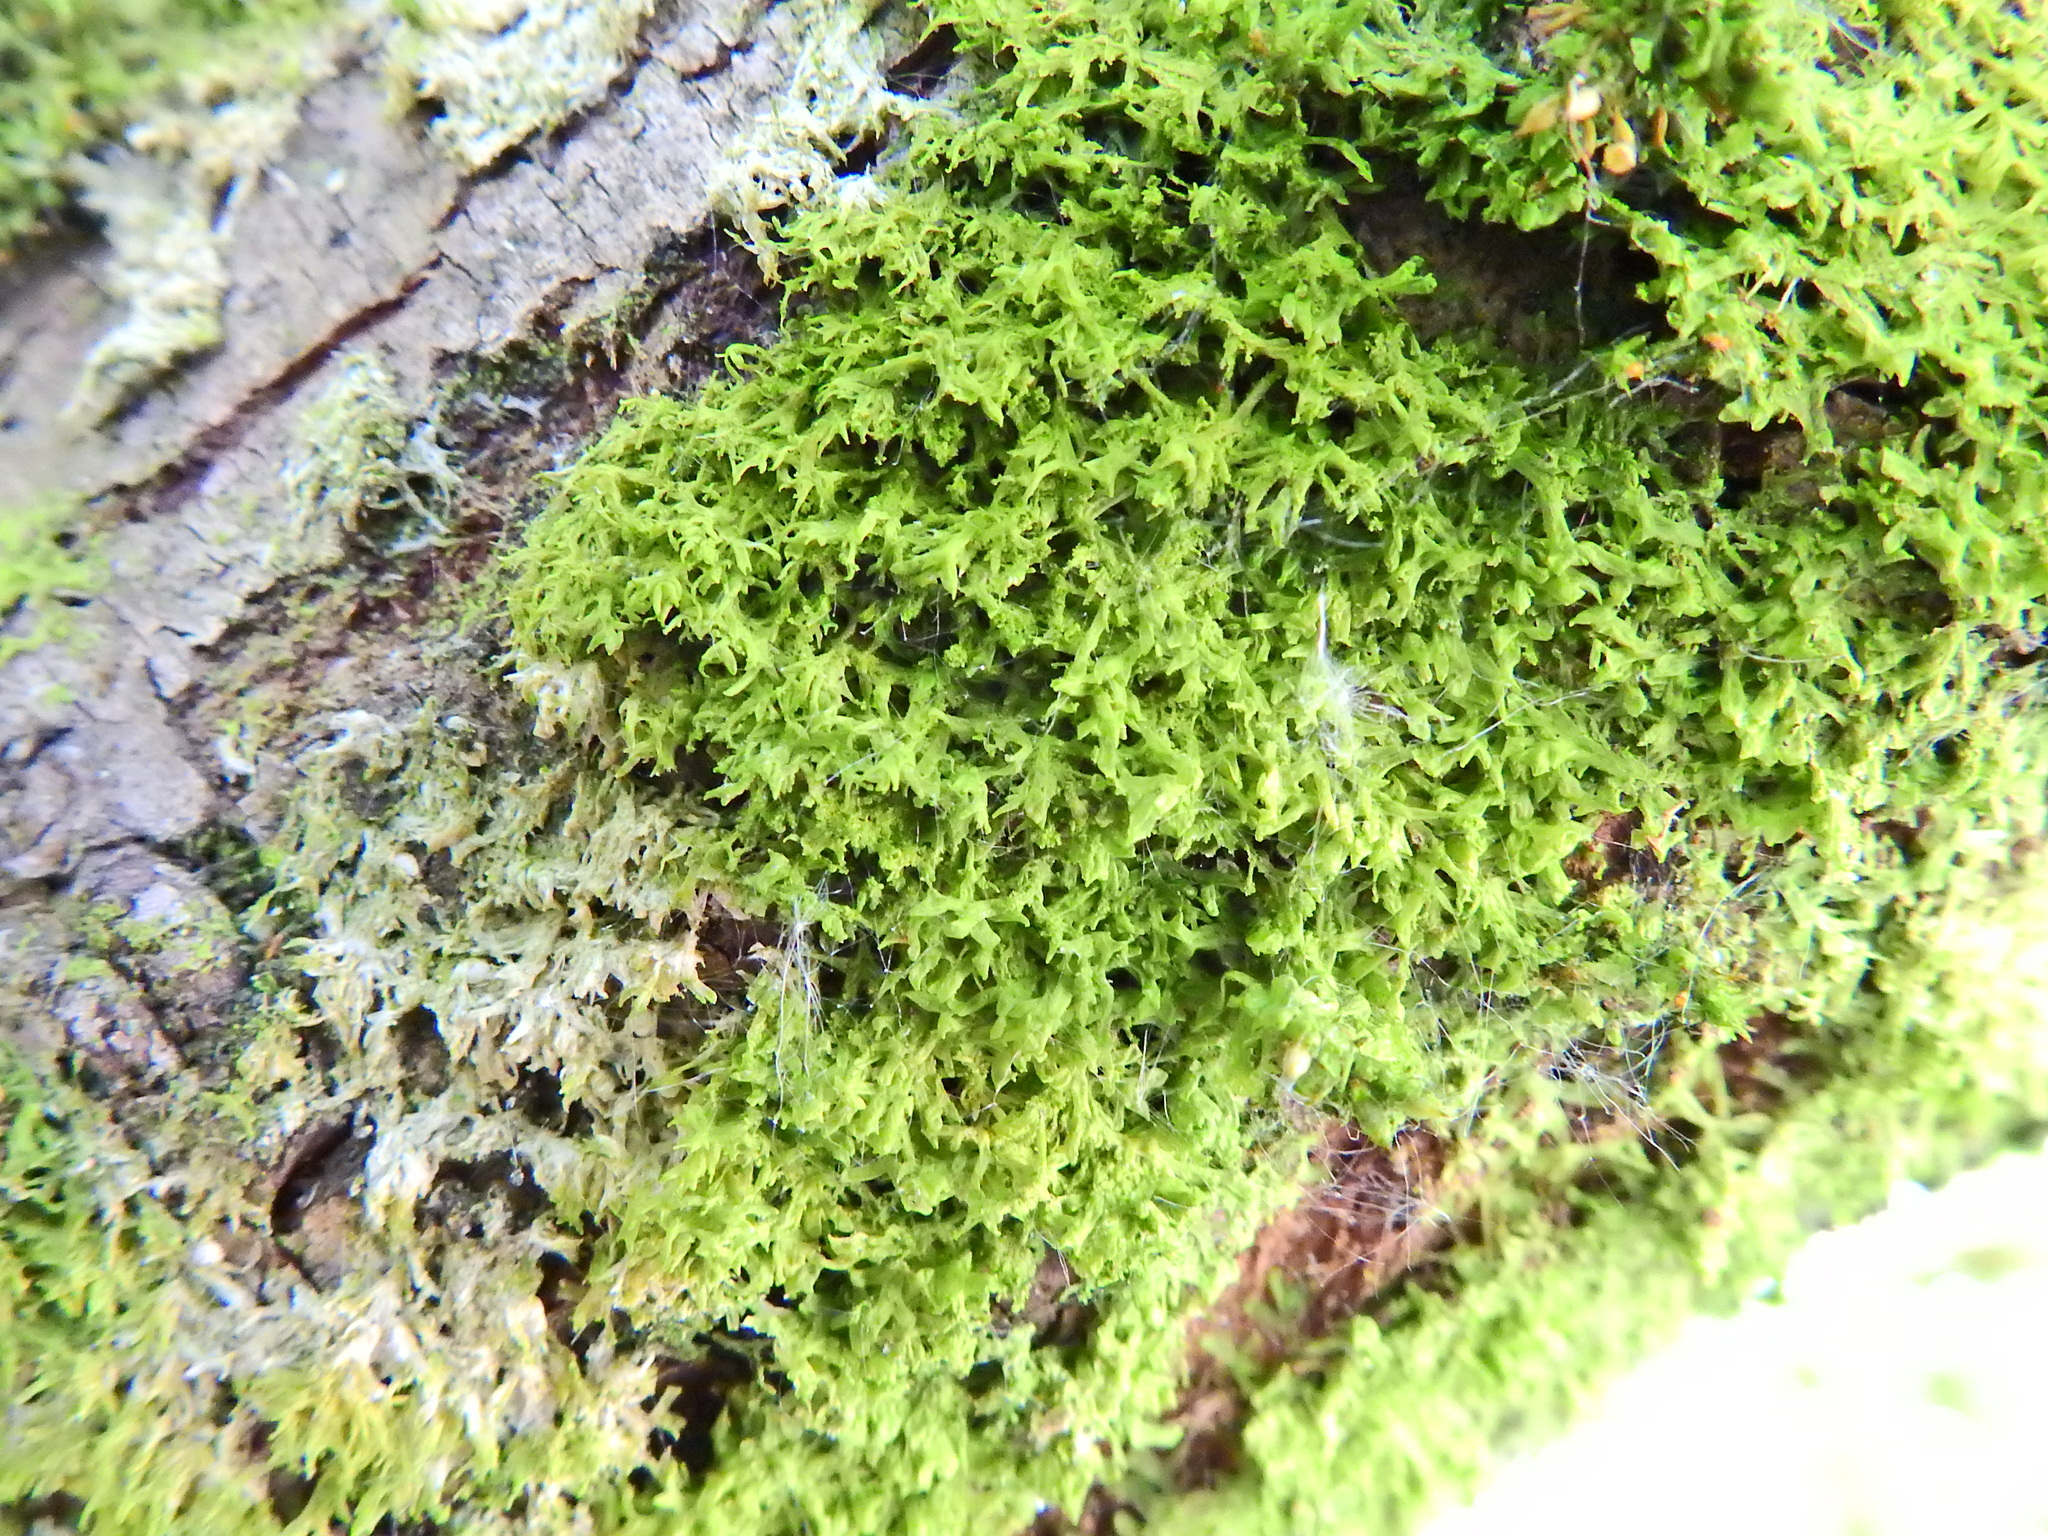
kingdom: Plantae
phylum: Marchantiophyta
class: Jungermanniopsida
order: Metzgeriales
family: Metzgeriaceae
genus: Metzgeria
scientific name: Metzgeria furcata
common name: Forked veilwort
